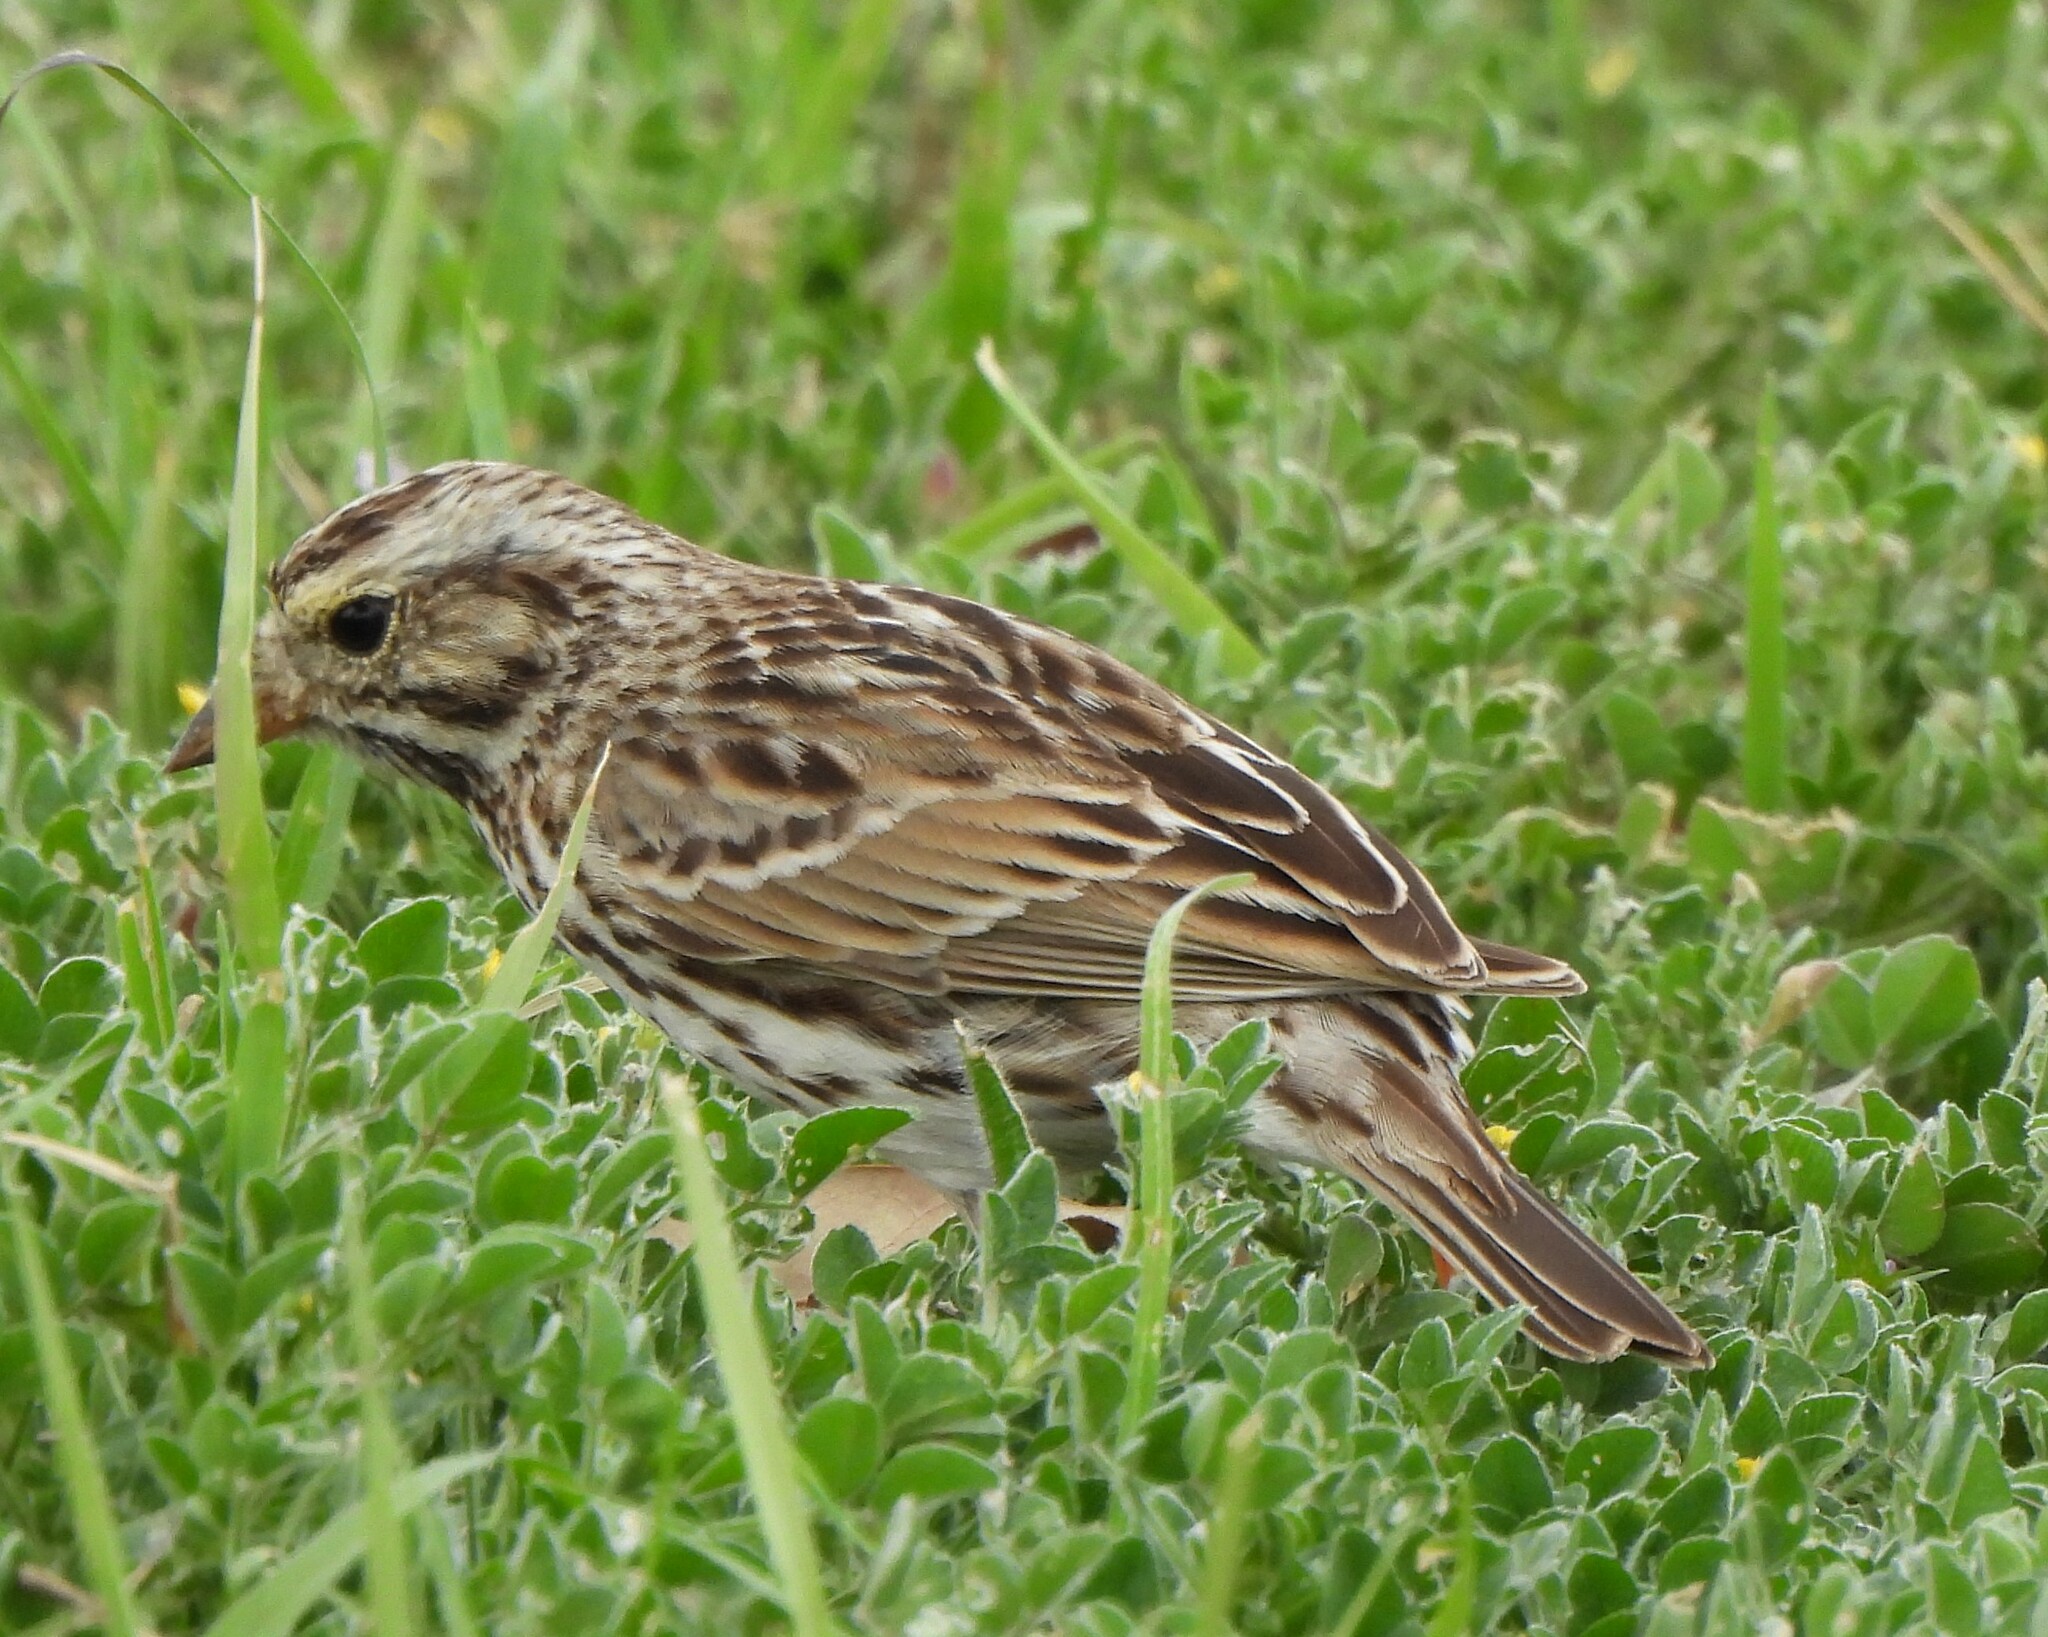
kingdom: Animalia
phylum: Chordata
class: Aves
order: Passeriformes
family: Passerellidae
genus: Passerculus
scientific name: Passerculus sandwichensis
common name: Savannah sparrow
